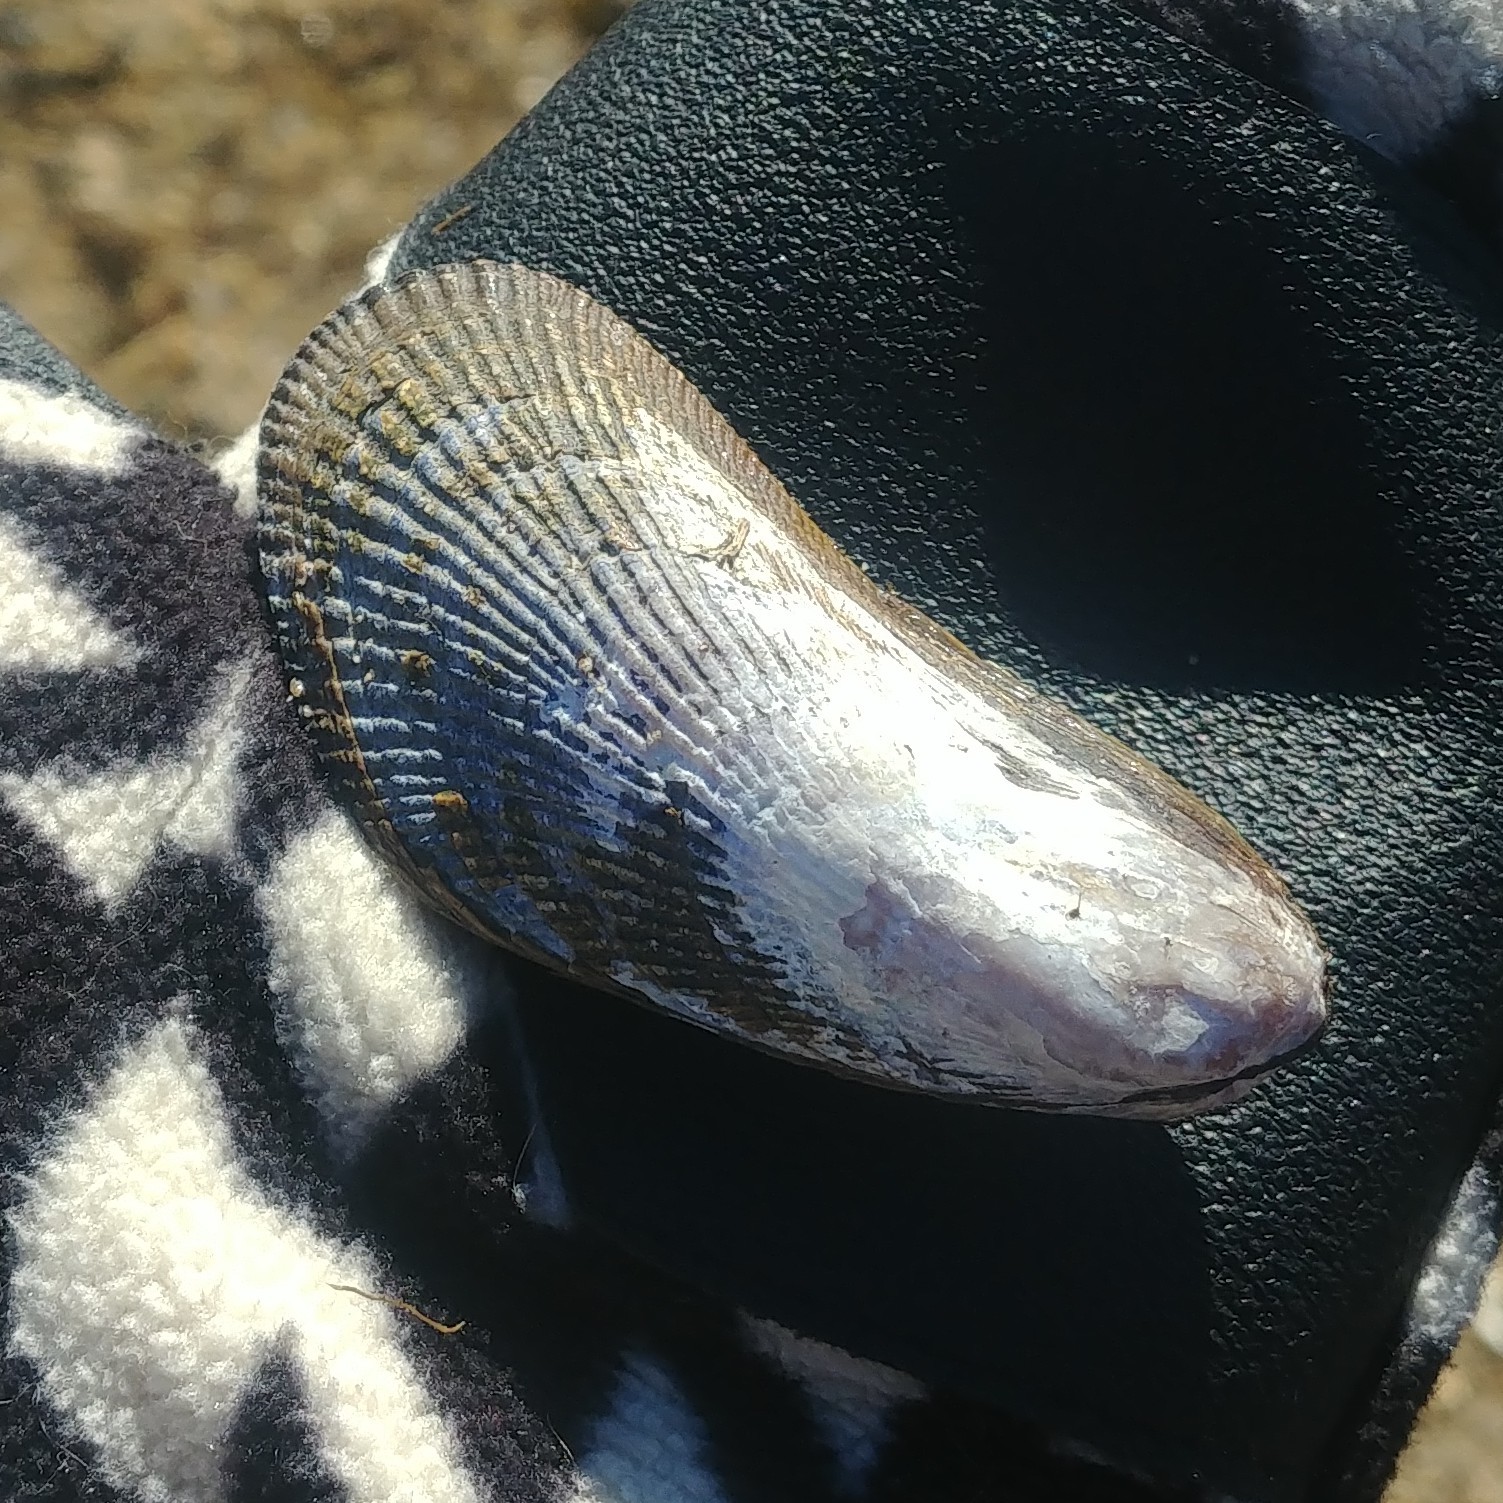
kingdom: Animalia
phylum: Mollusca
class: Bivalvia
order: Mytilida
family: Mytilidae
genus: Geukensia
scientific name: Geukensia demissa
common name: Ribbed mussel
